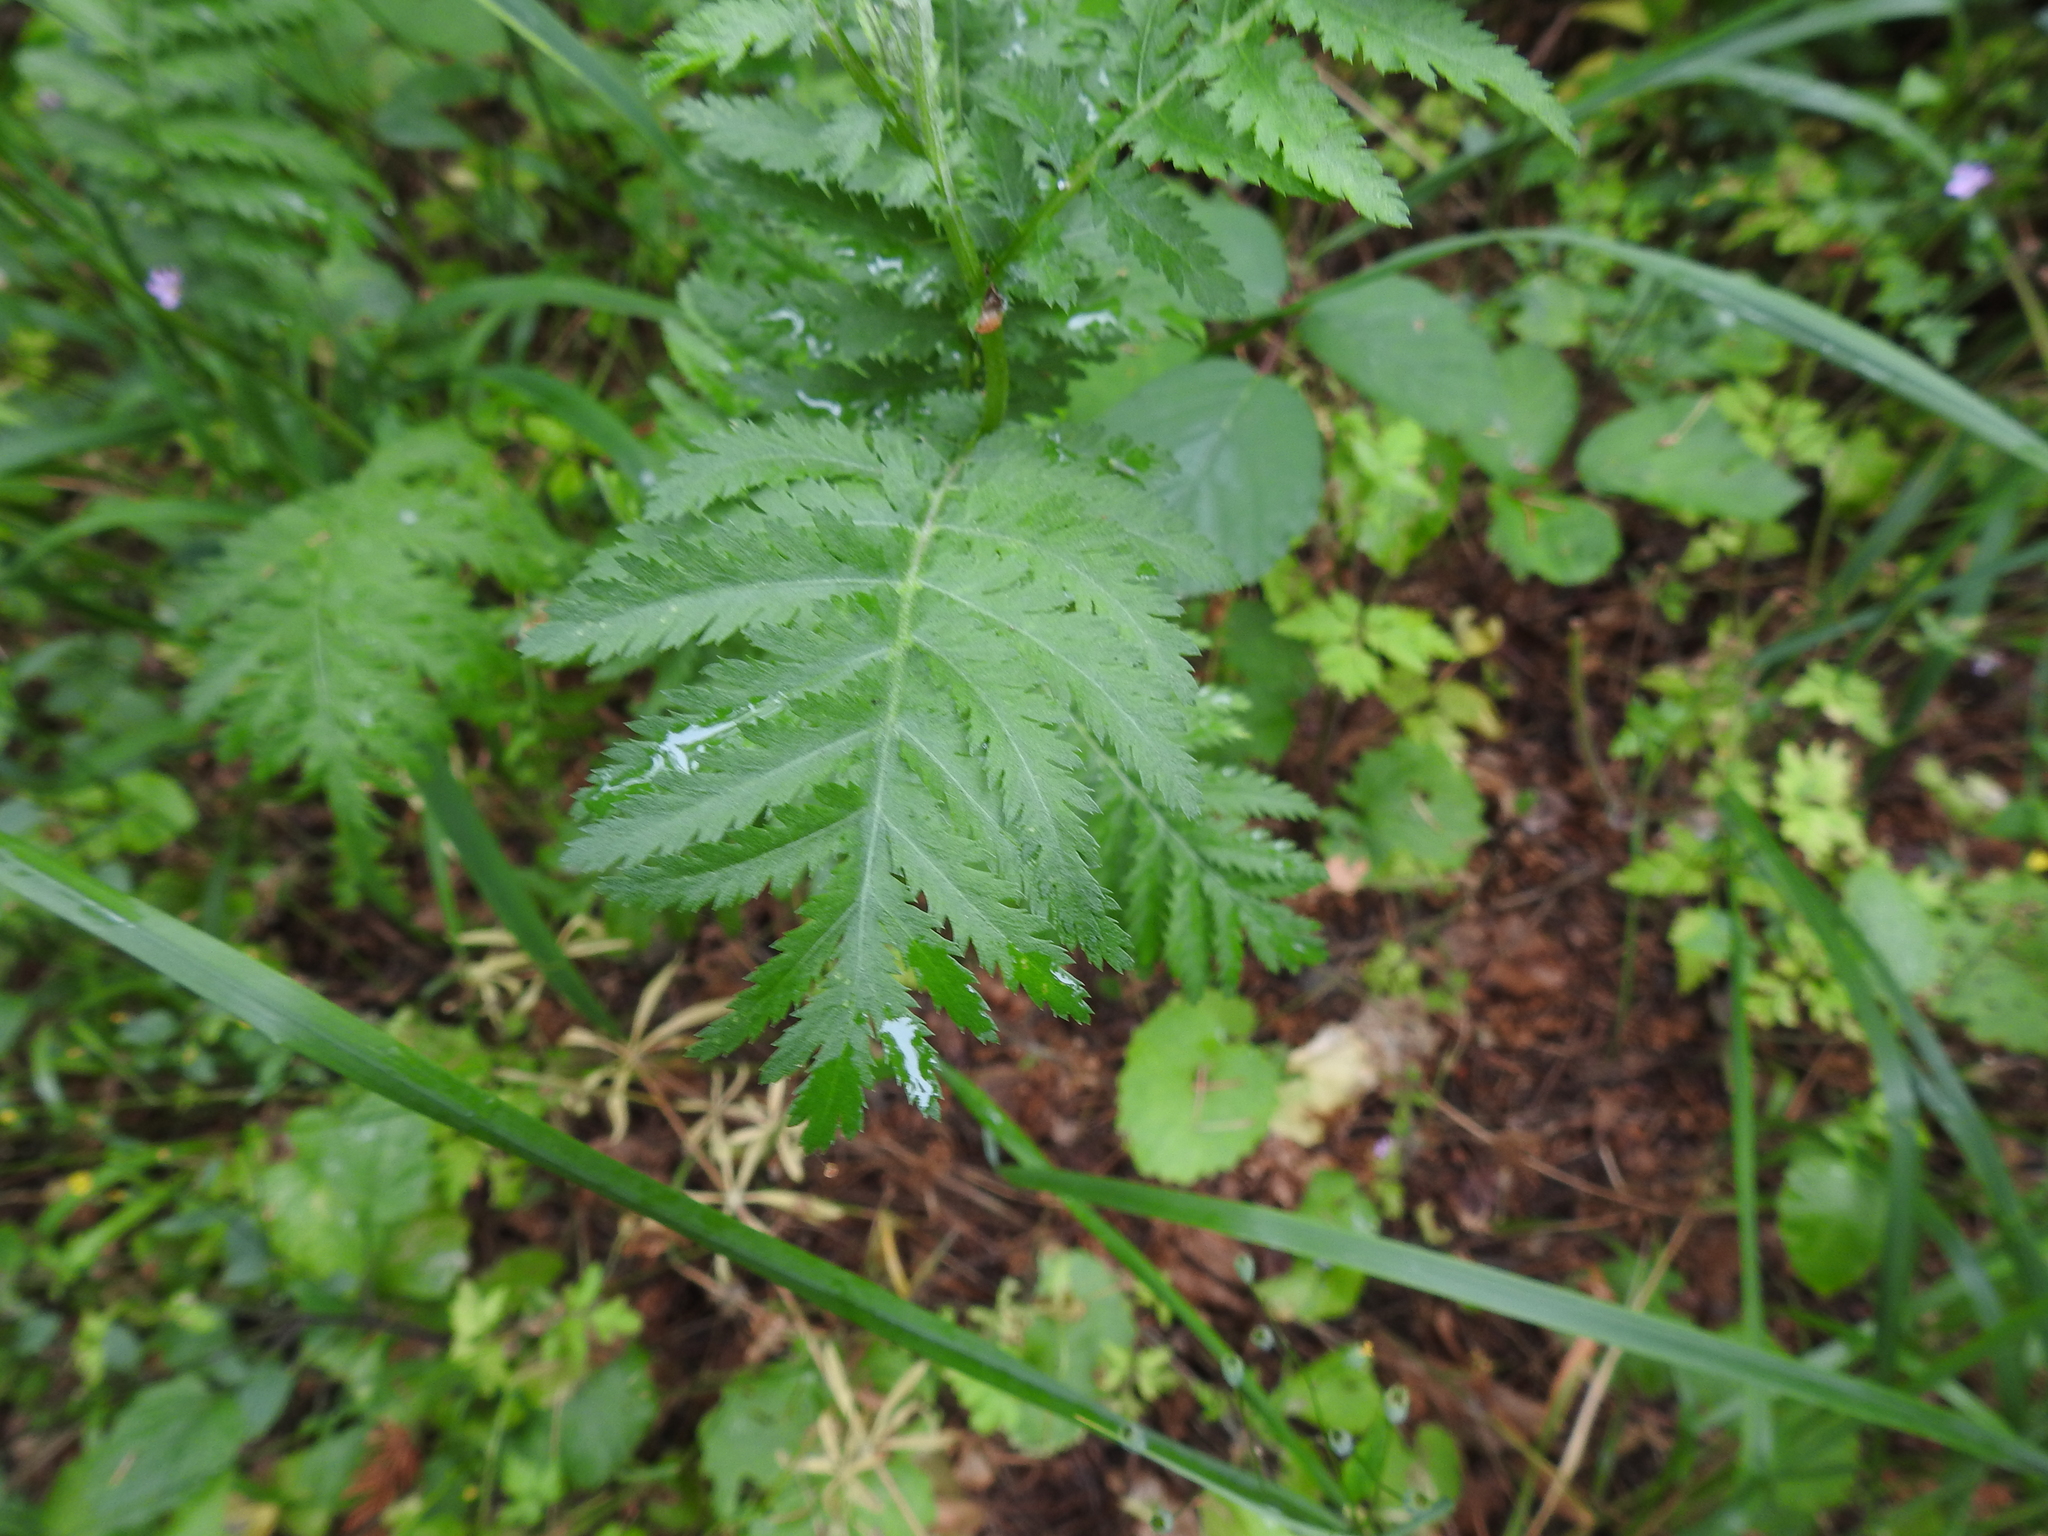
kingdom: Plantae
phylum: Tracheophyta
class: Magnoliopsida
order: Asterales
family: Asteraceae
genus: Tanacetum
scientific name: Tanacetum vulgare
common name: Common tansy
